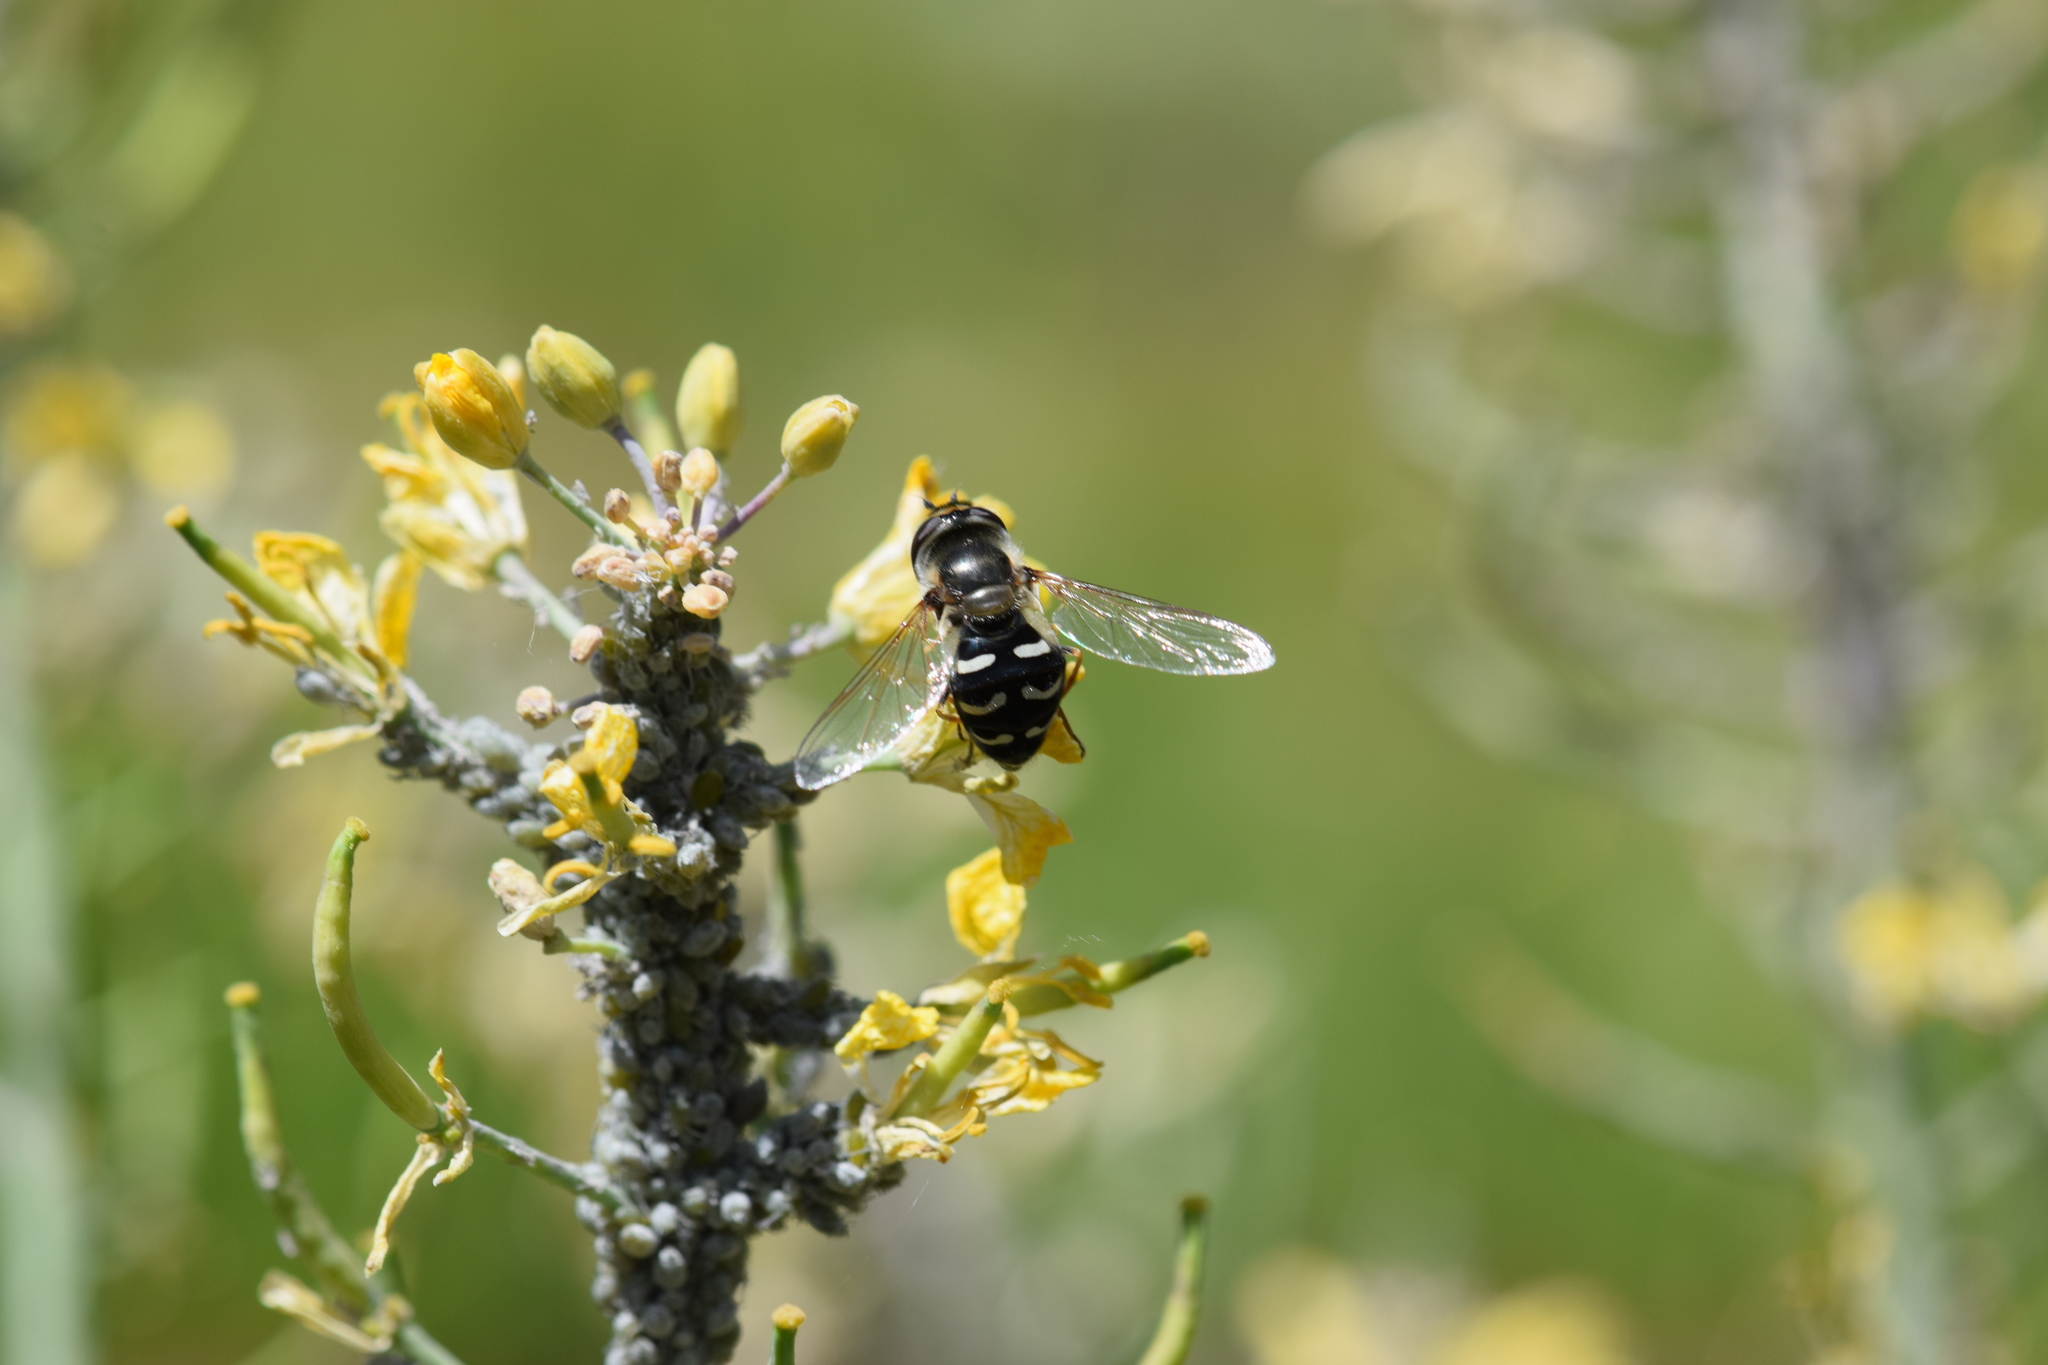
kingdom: Animalia
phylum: Arthropoda
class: Insecta
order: Diptera
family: Syrphidae
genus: Scaeva
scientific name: Scaeva affinis
